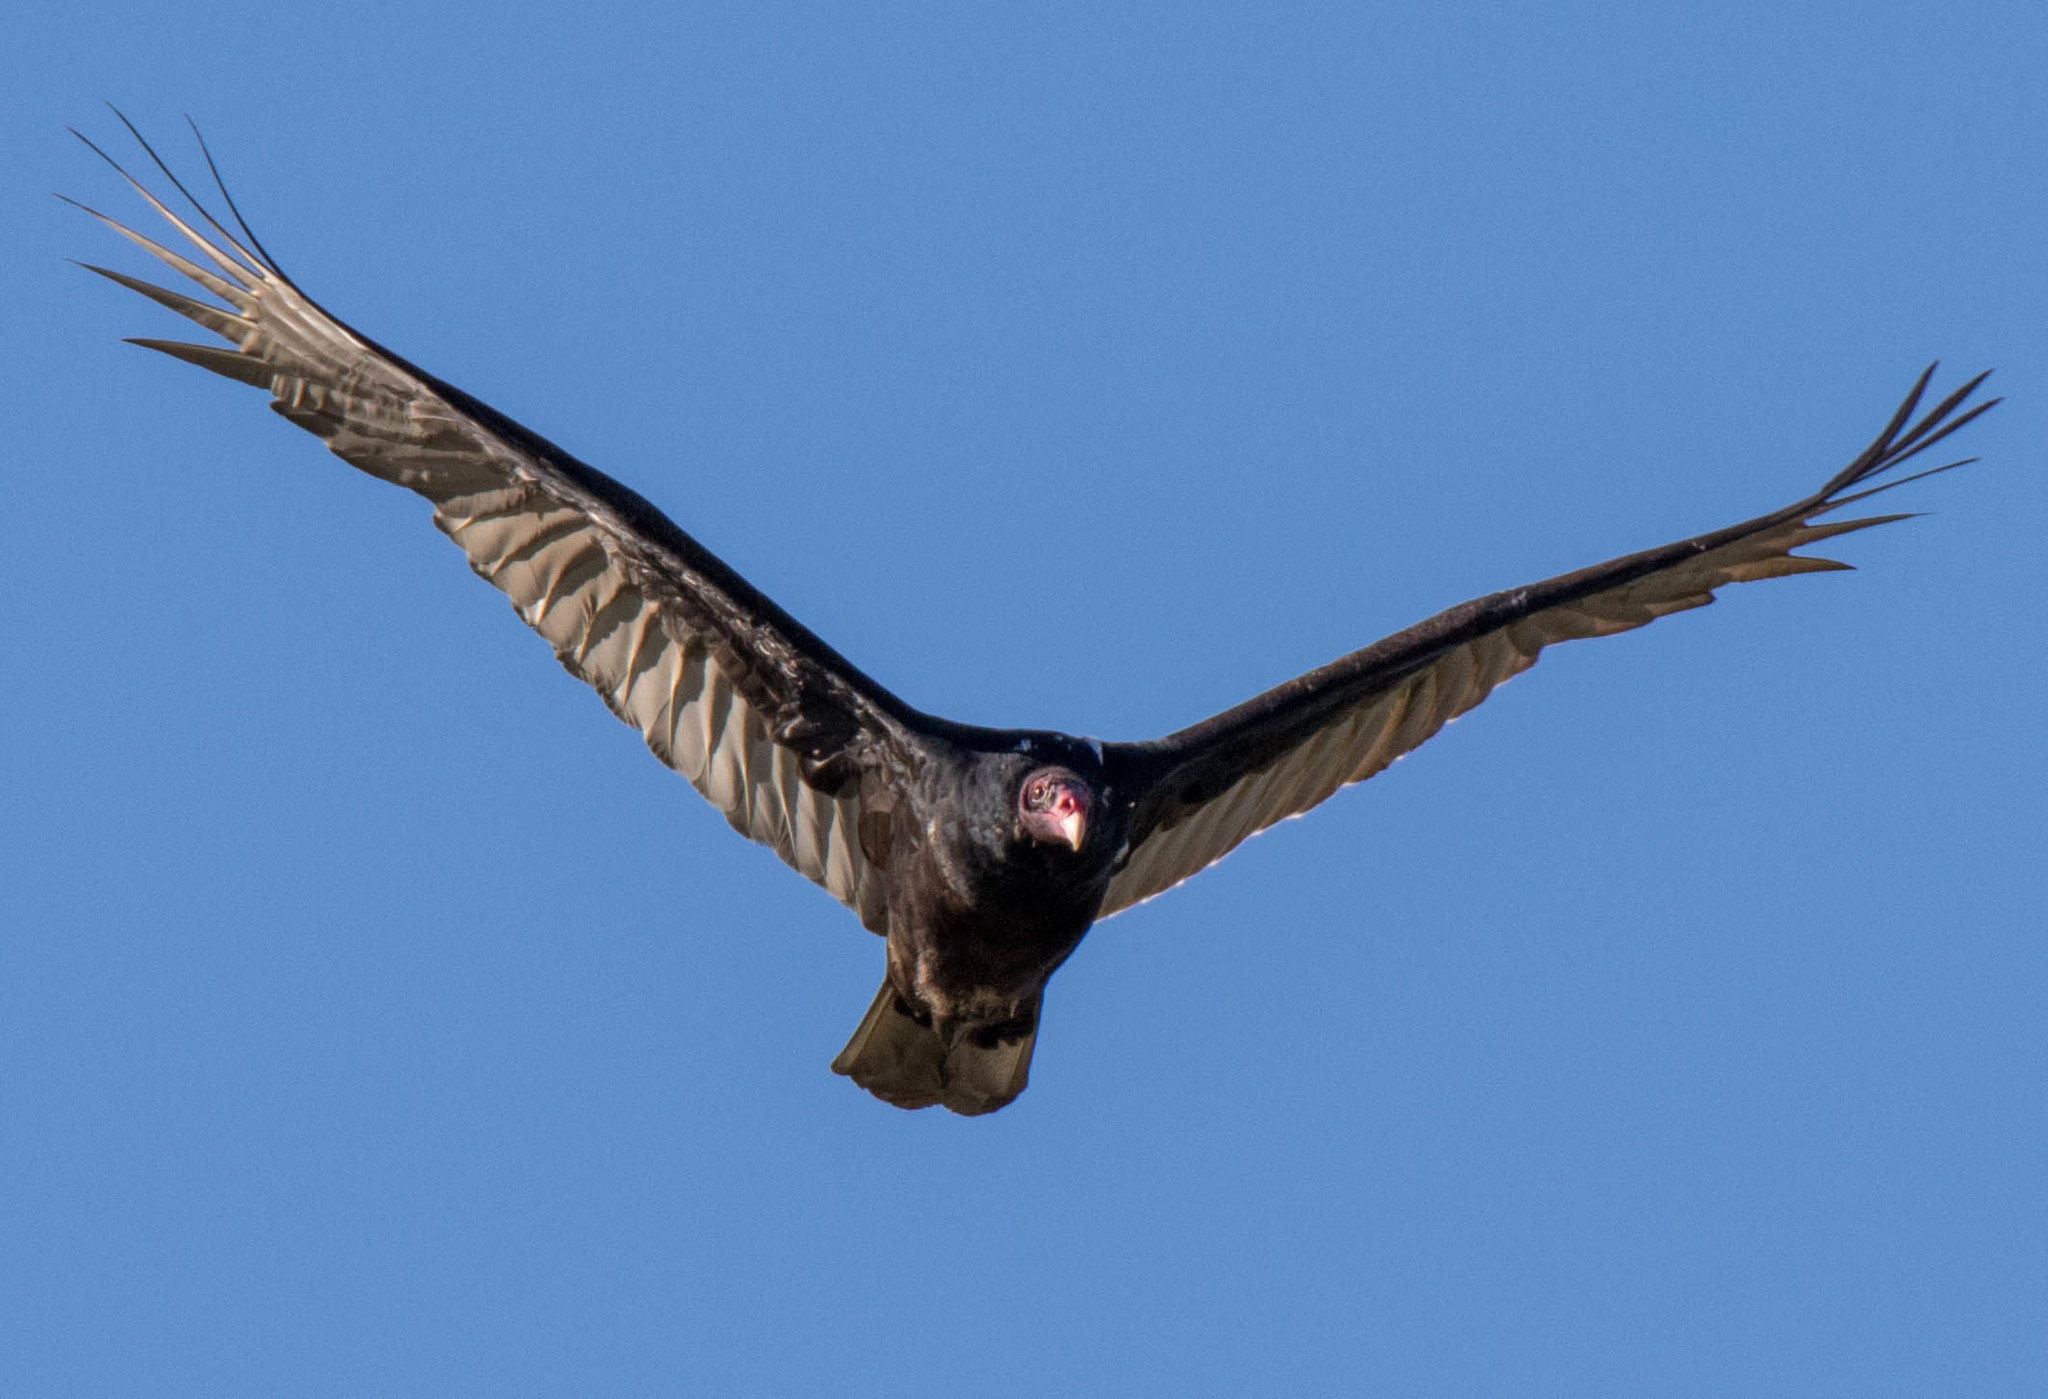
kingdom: Animalia
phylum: Chordata
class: Aves
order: Accipitriformes
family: Cathartidae
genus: Cathartes
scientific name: Cathartes aura
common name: Turkey vulture
